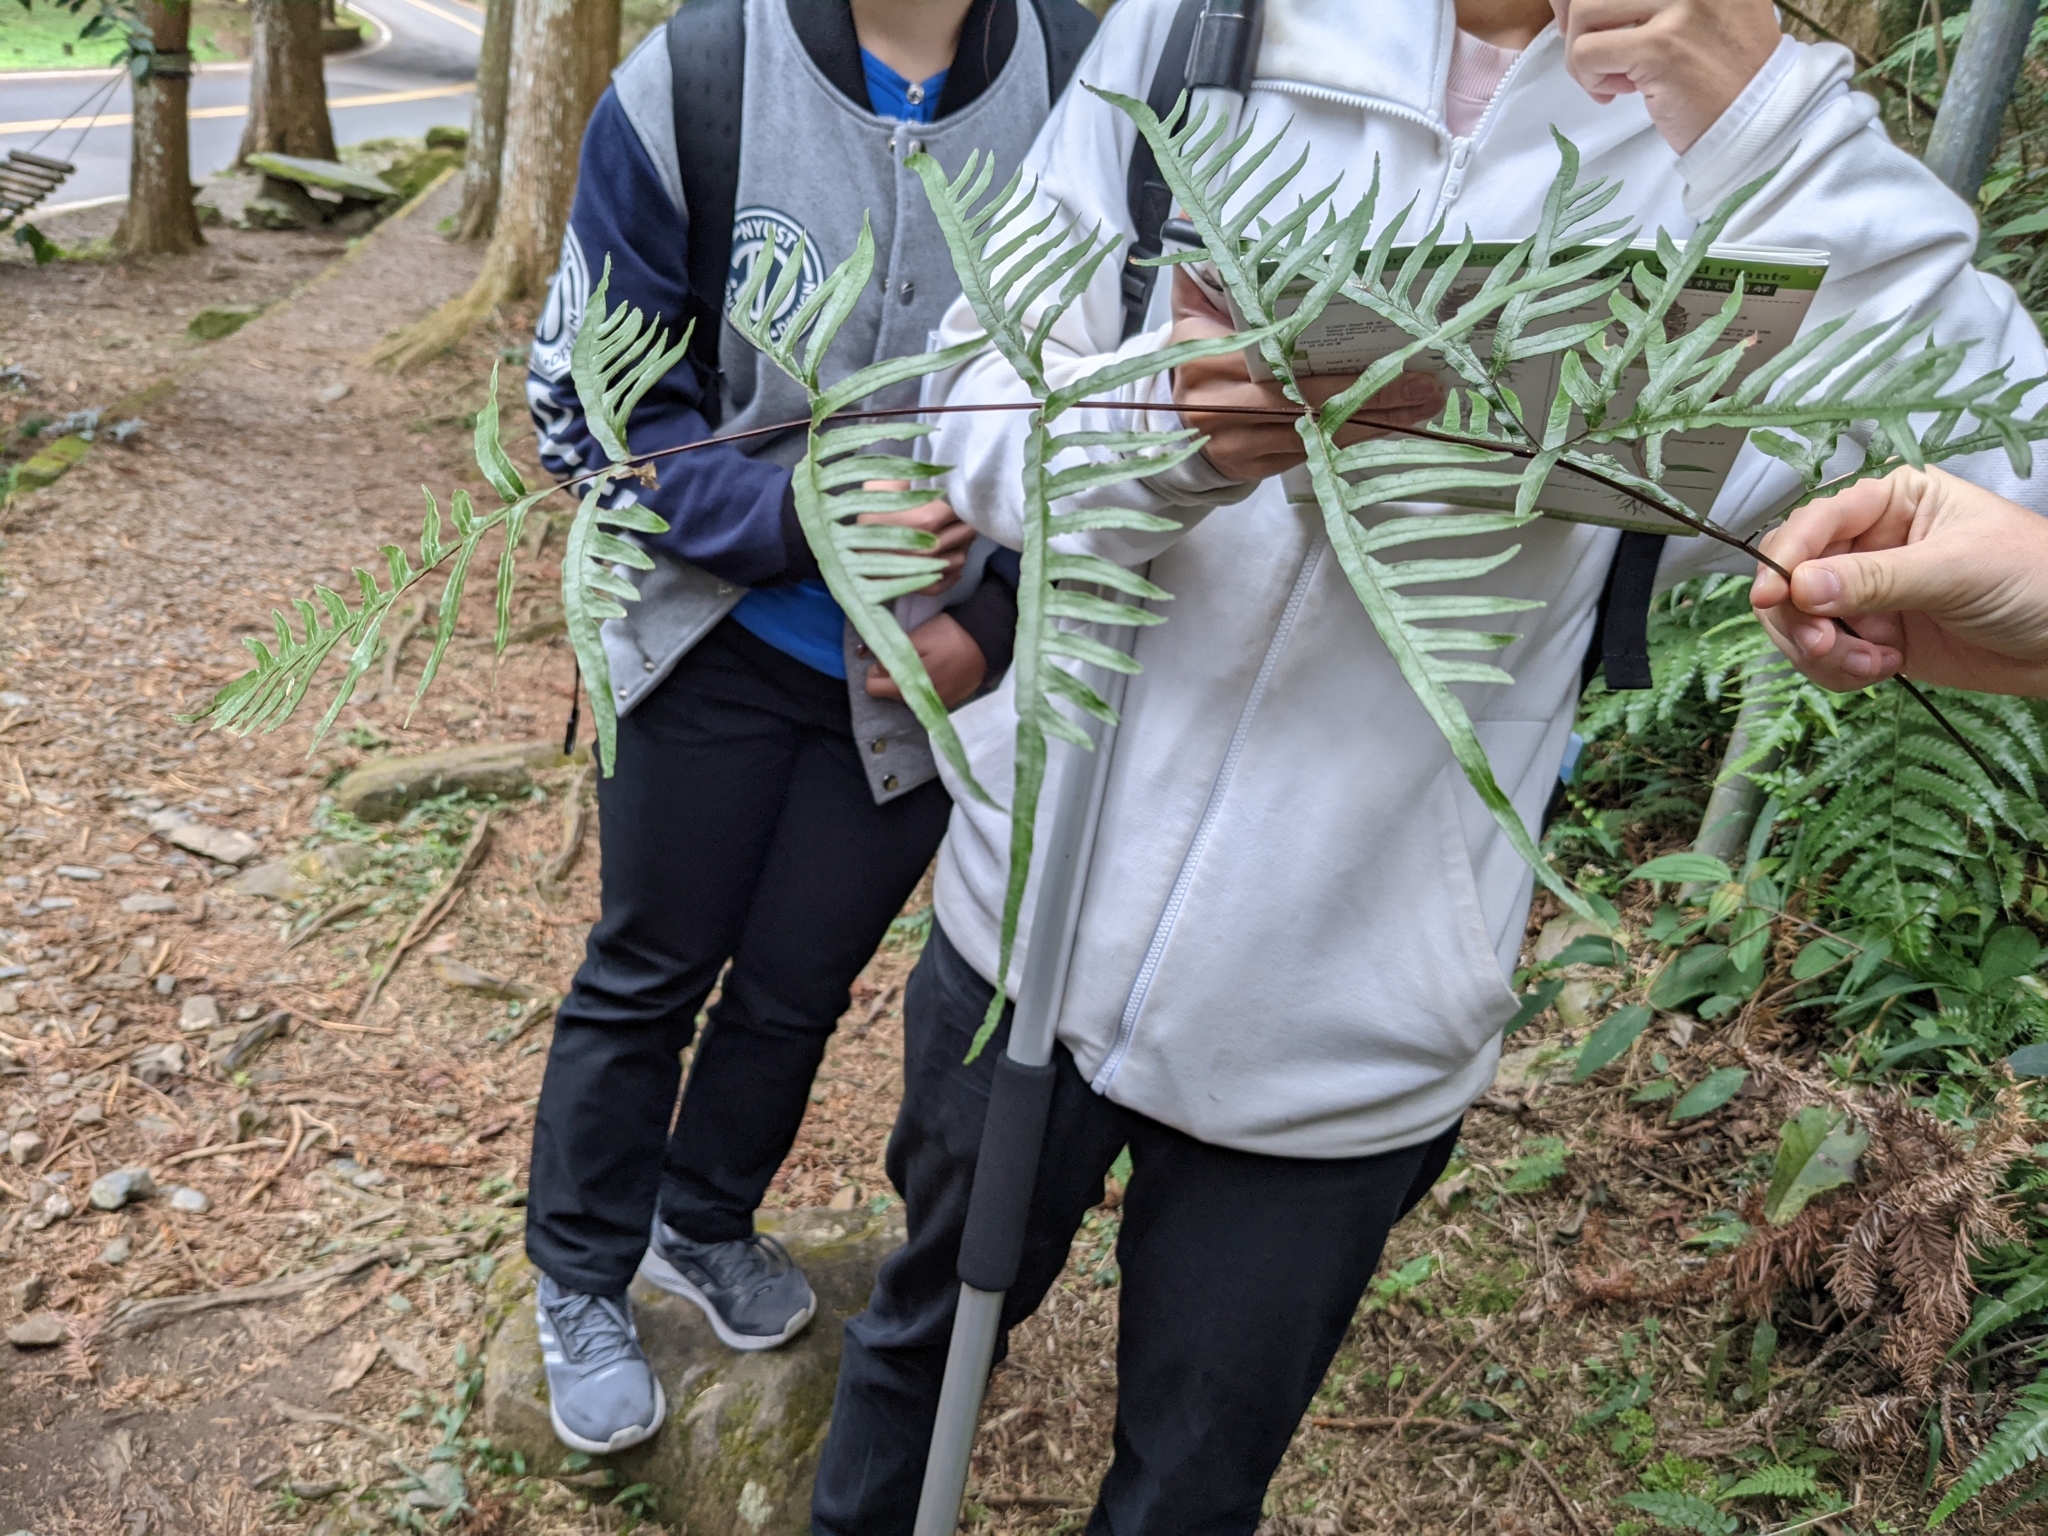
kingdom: Plantae
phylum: Tracheophyta
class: Polypodiopsida
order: Polypodiales
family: Pteridaceae
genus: Pteris
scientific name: Pteris semipinnata
